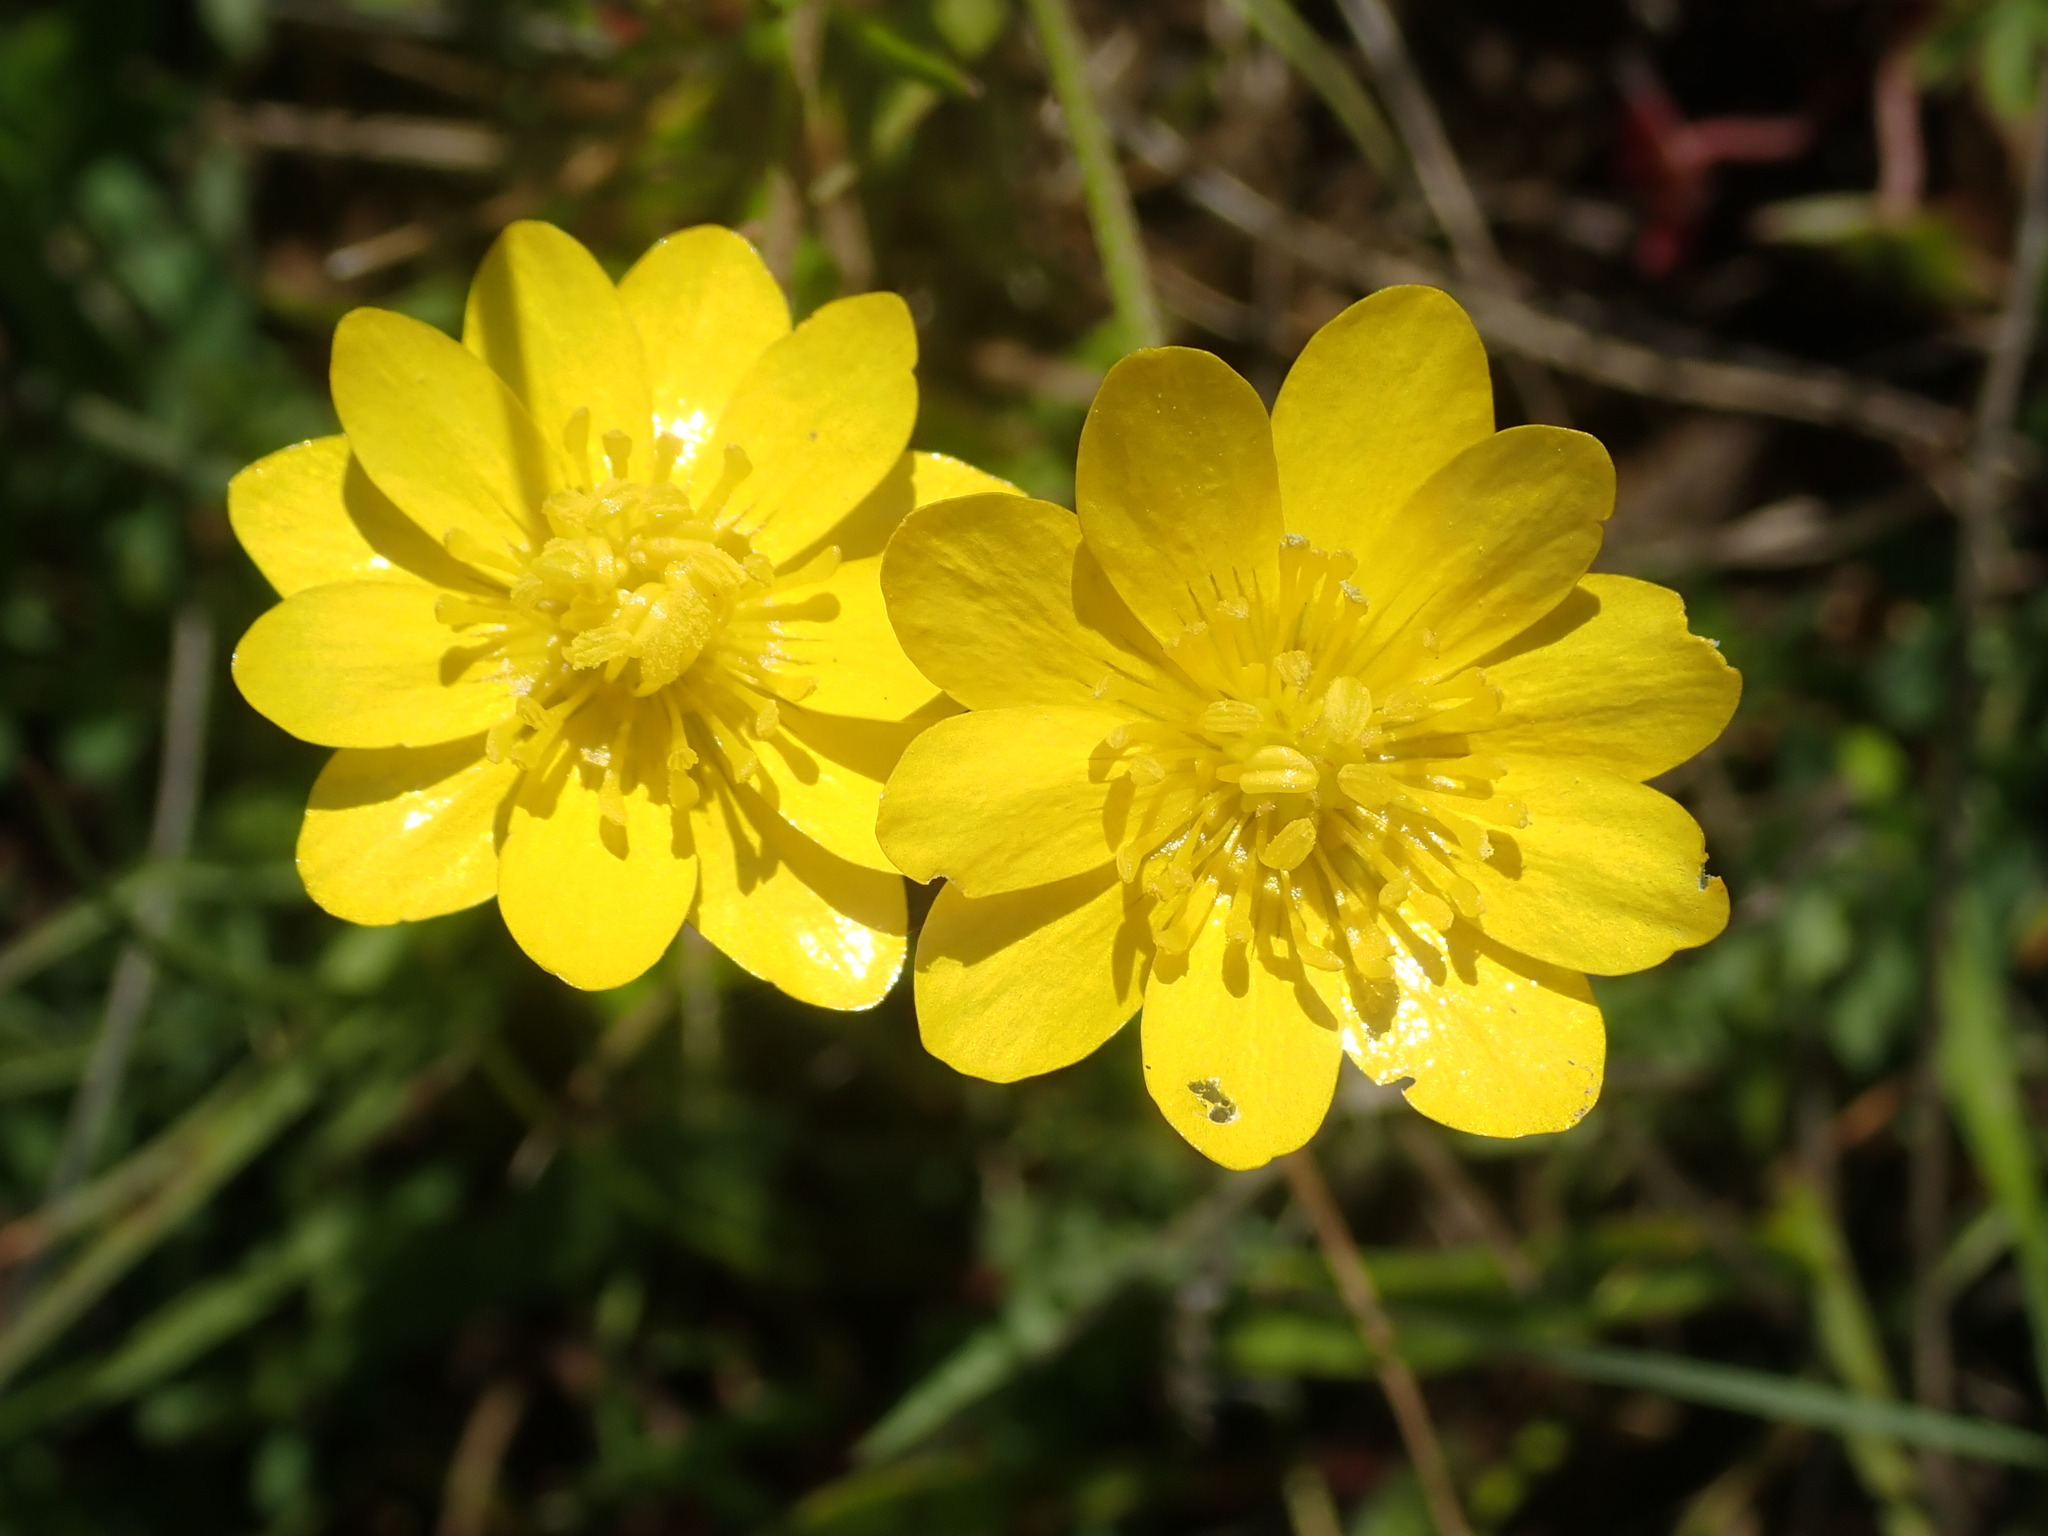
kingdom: Plantae
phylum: Tracheophyta
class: Magnoliopsida
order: Ranunculales
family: Ranunculaceae
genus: Ranunculus
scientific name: Ranunculus californicus
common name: California buttercup
